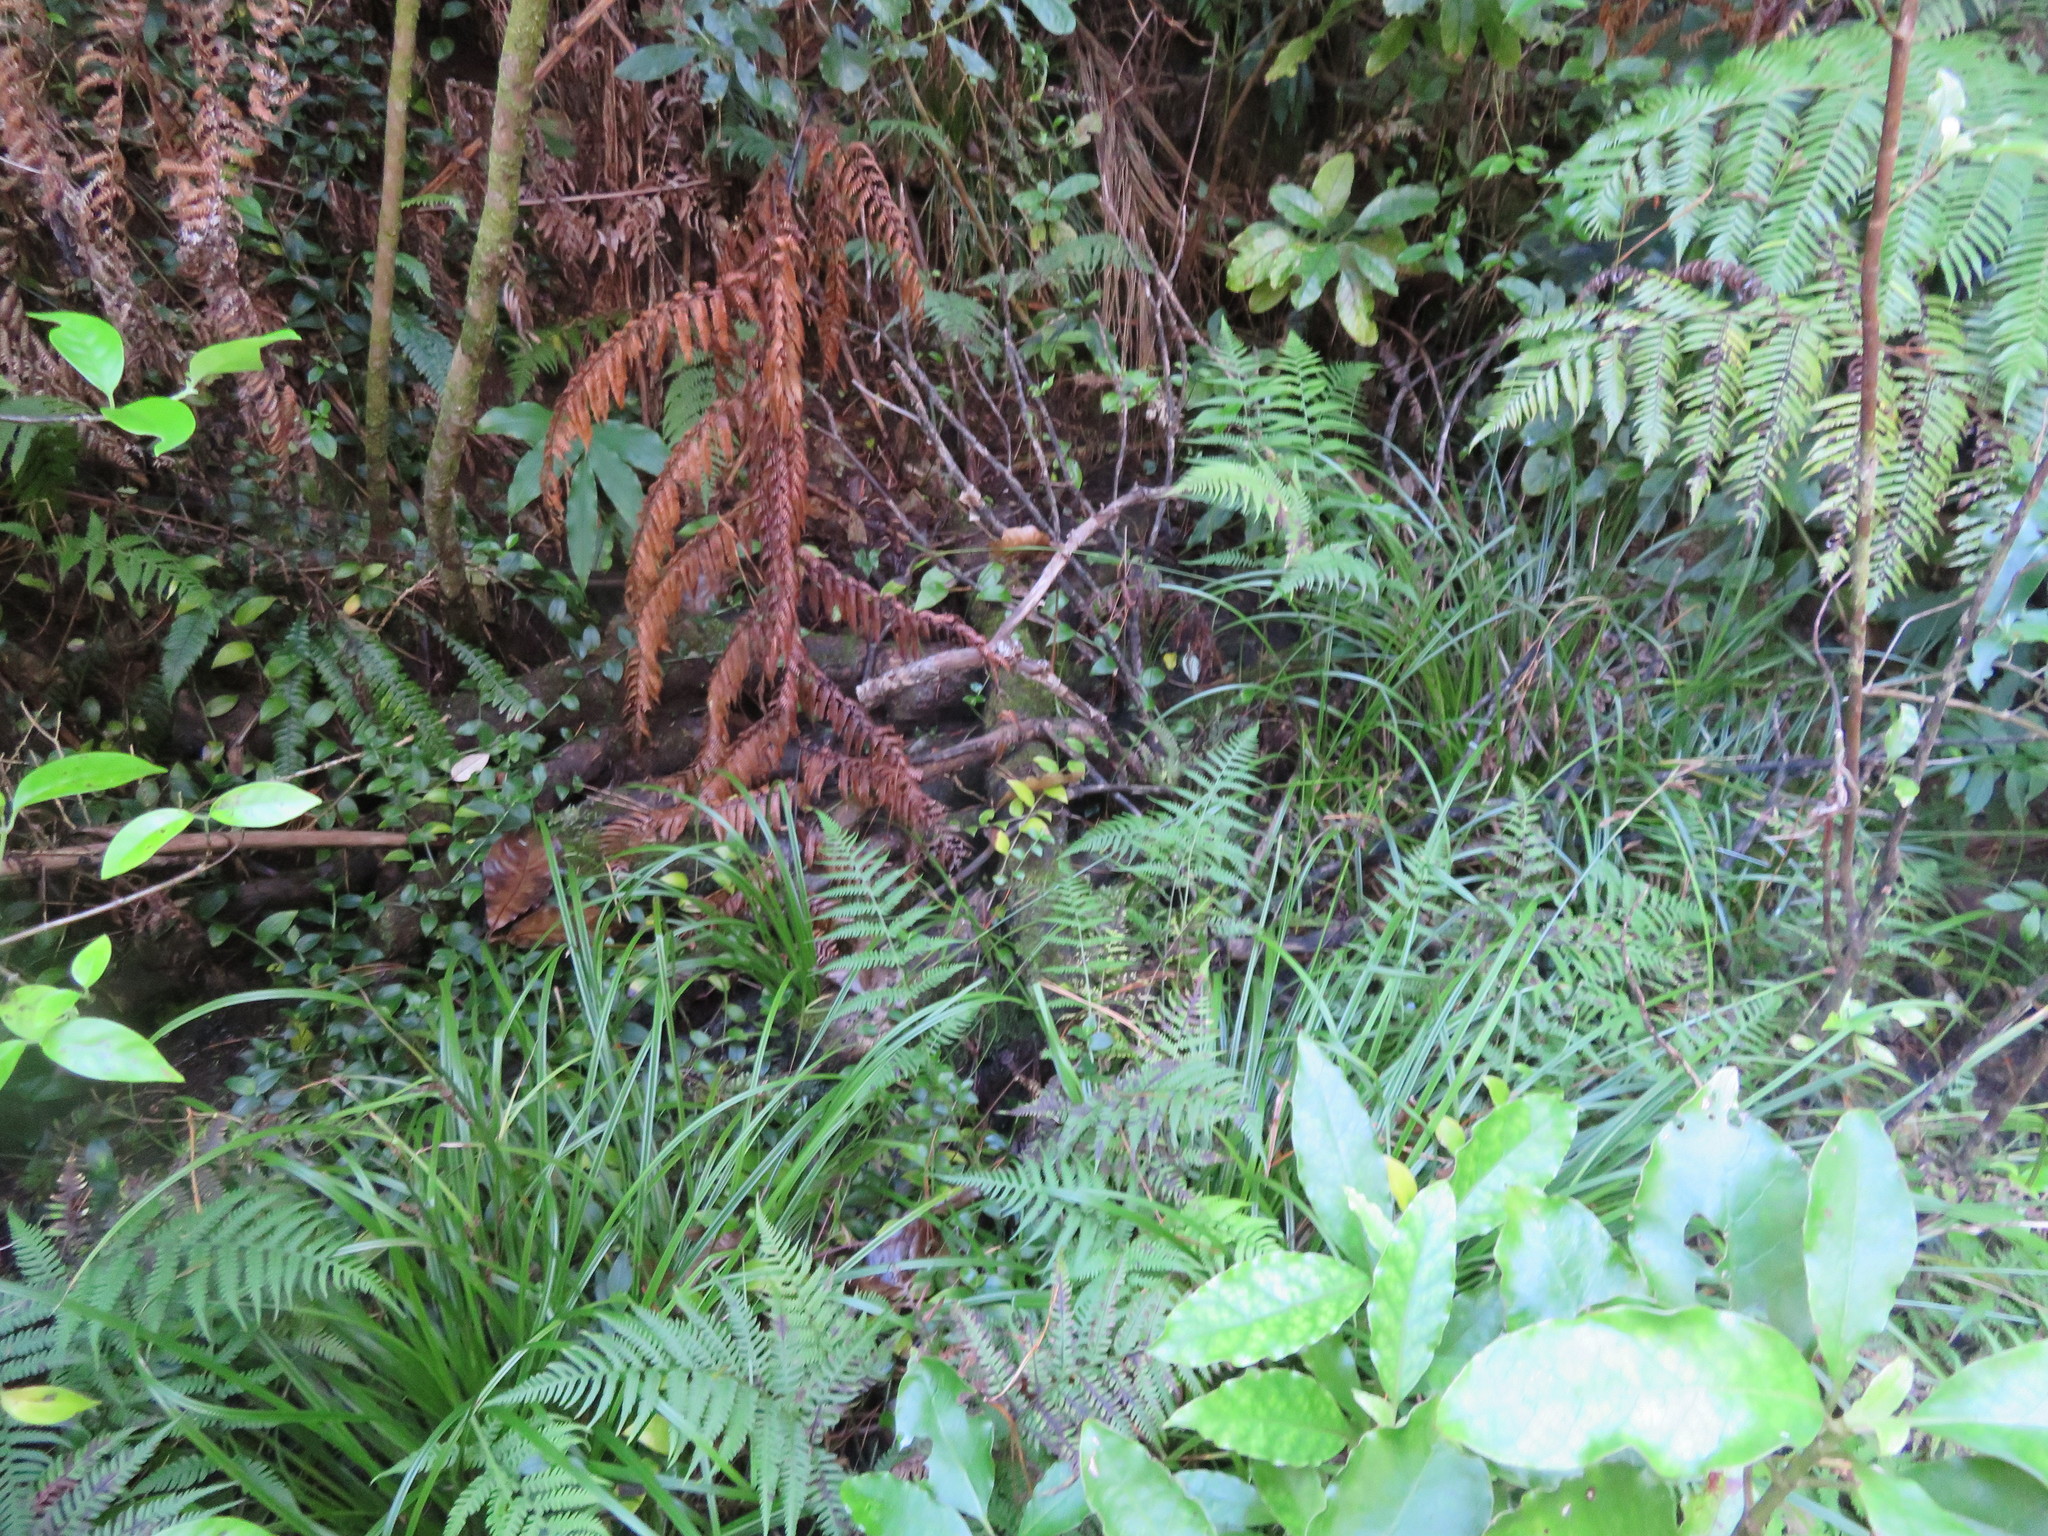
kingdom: Plantae
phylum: Tracheophyta
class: Polypodiopsida
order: Polypodiales
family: Blechnaceae
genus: Austroblechnum
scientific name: Austroblechnum lanceolatum
